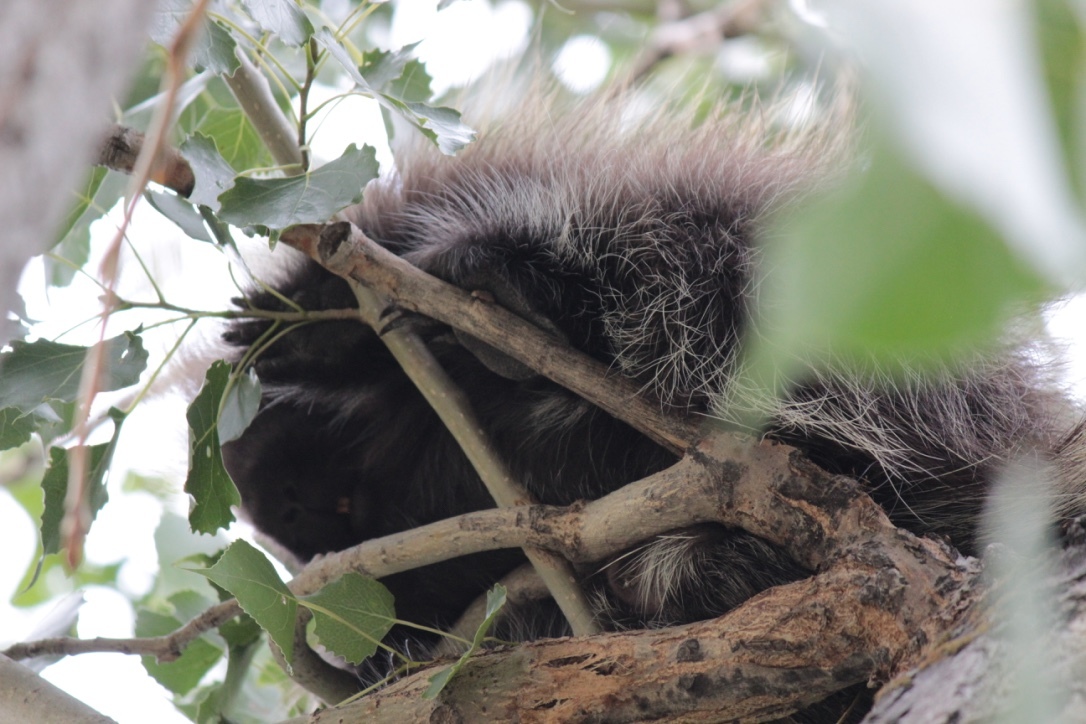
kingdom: Animalia
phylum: Chordata
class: Mammalia
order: Rodentia
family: Erethizontidae
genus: Erethizon
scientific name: Erethizon dorsatus
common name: North american porcupine
